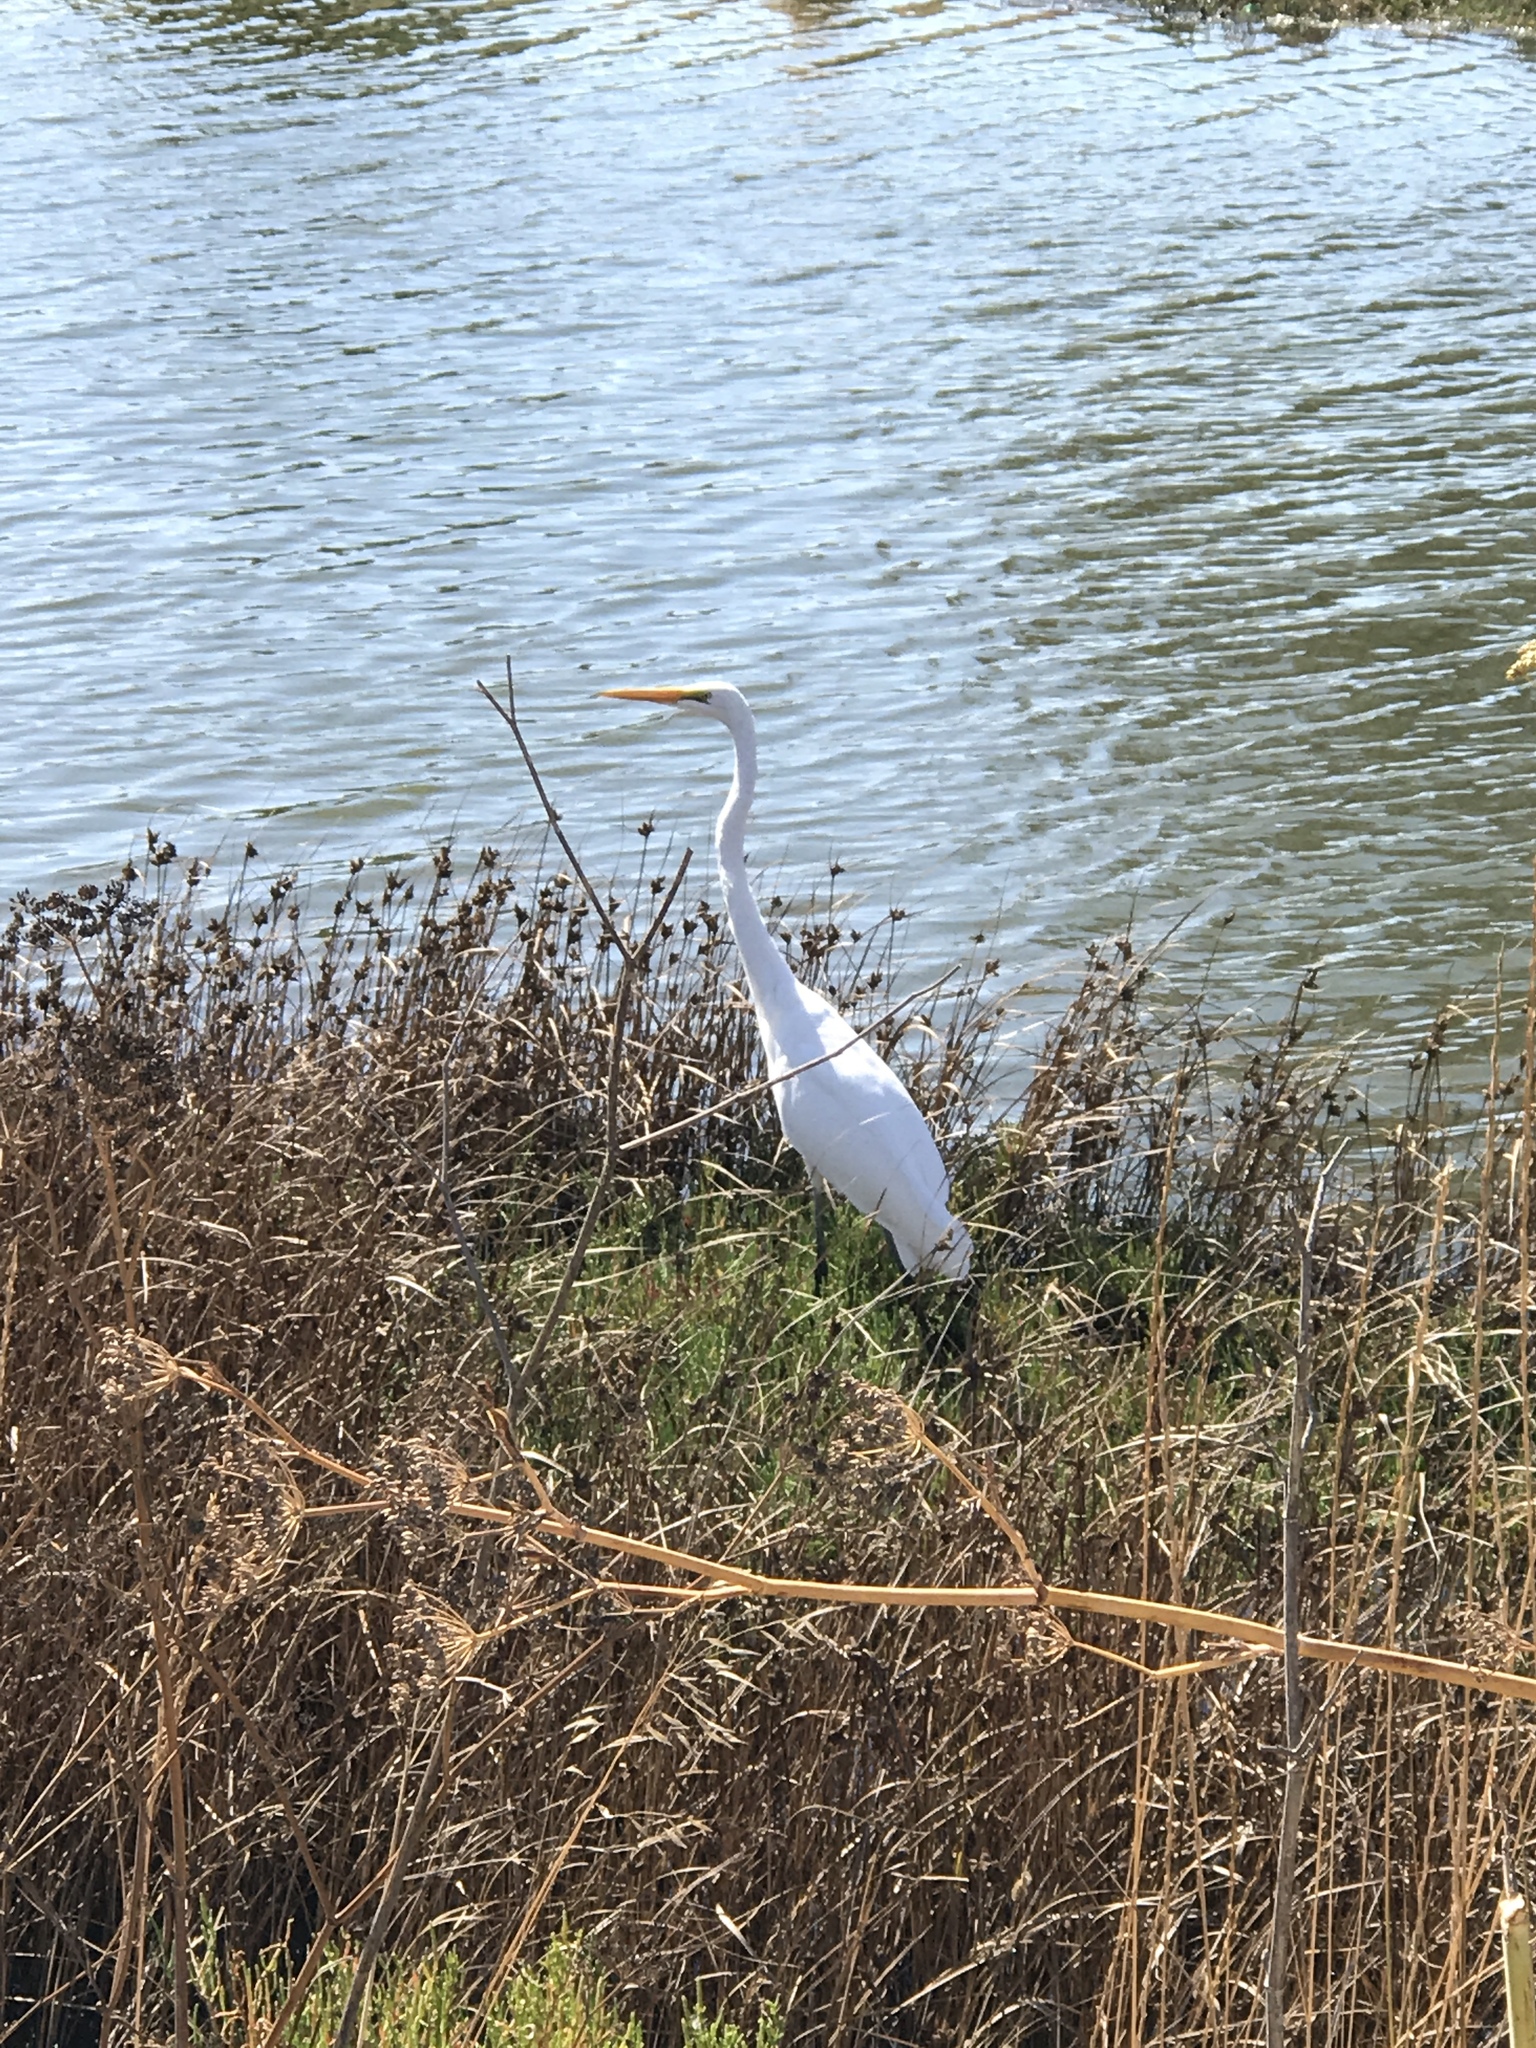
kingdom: Animalia
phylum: Chordata
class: Aves
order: Pelecaniformes
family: Ardeidae
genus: Ardea
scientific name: Ardea alba
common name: Great egret
